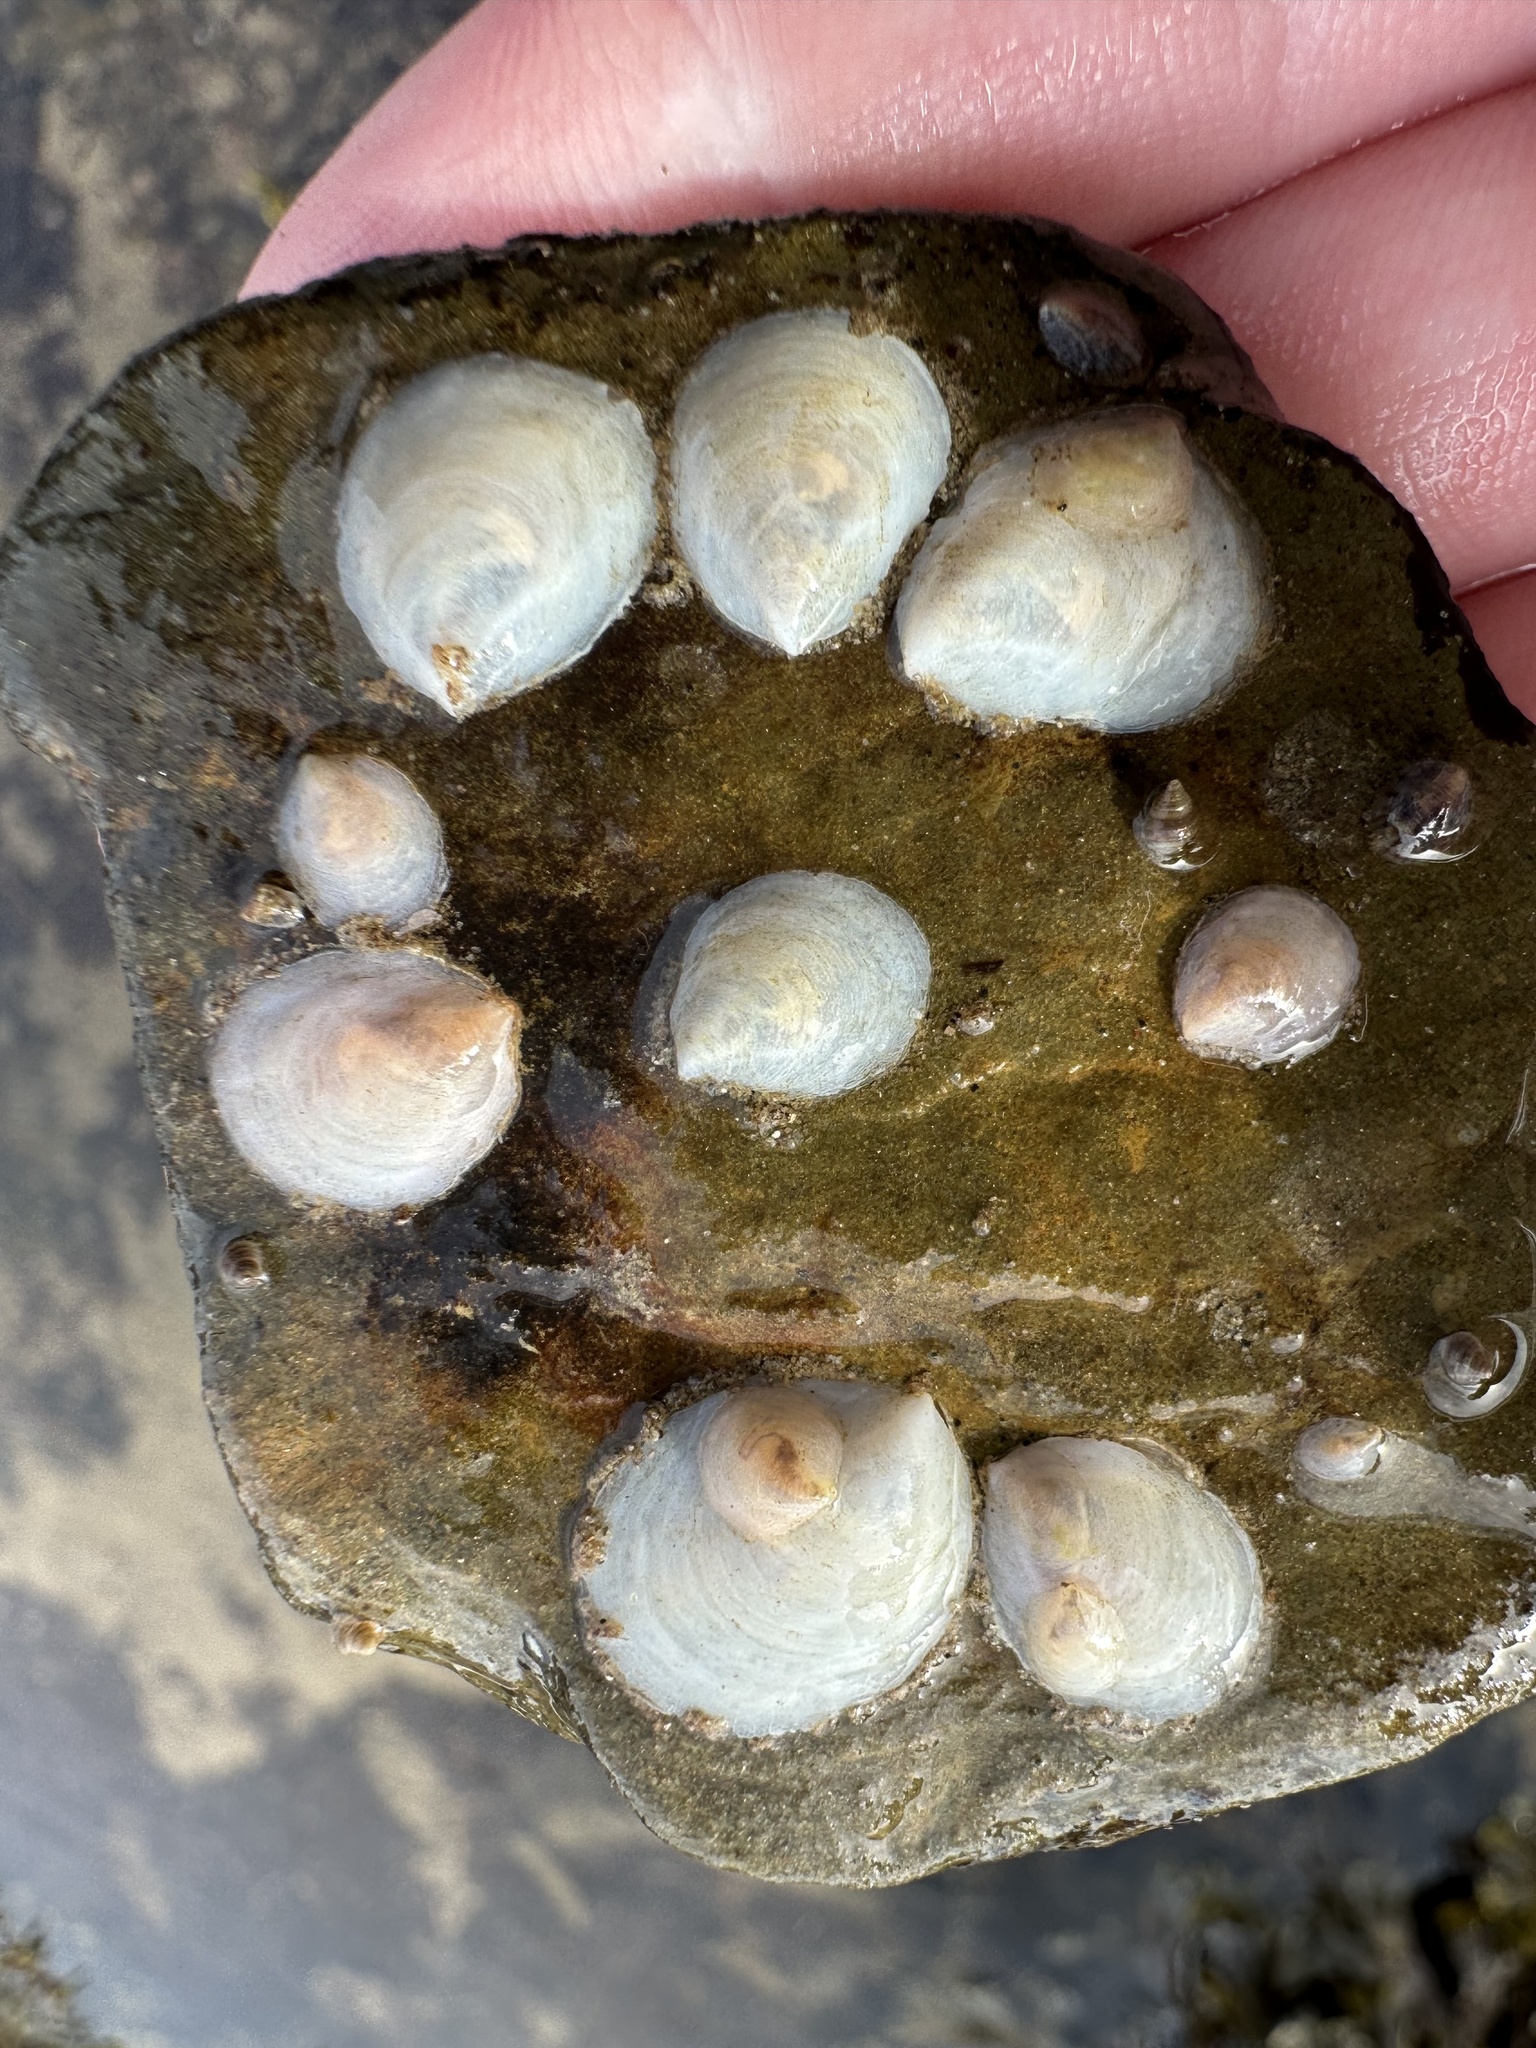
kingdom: Animalia
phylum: Mollusca
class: Gastropoda
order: Littorinimorpha
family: Calyptraeidae
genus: Crepidula
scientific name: Crepidula plana
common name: Eastern white slippersnail
